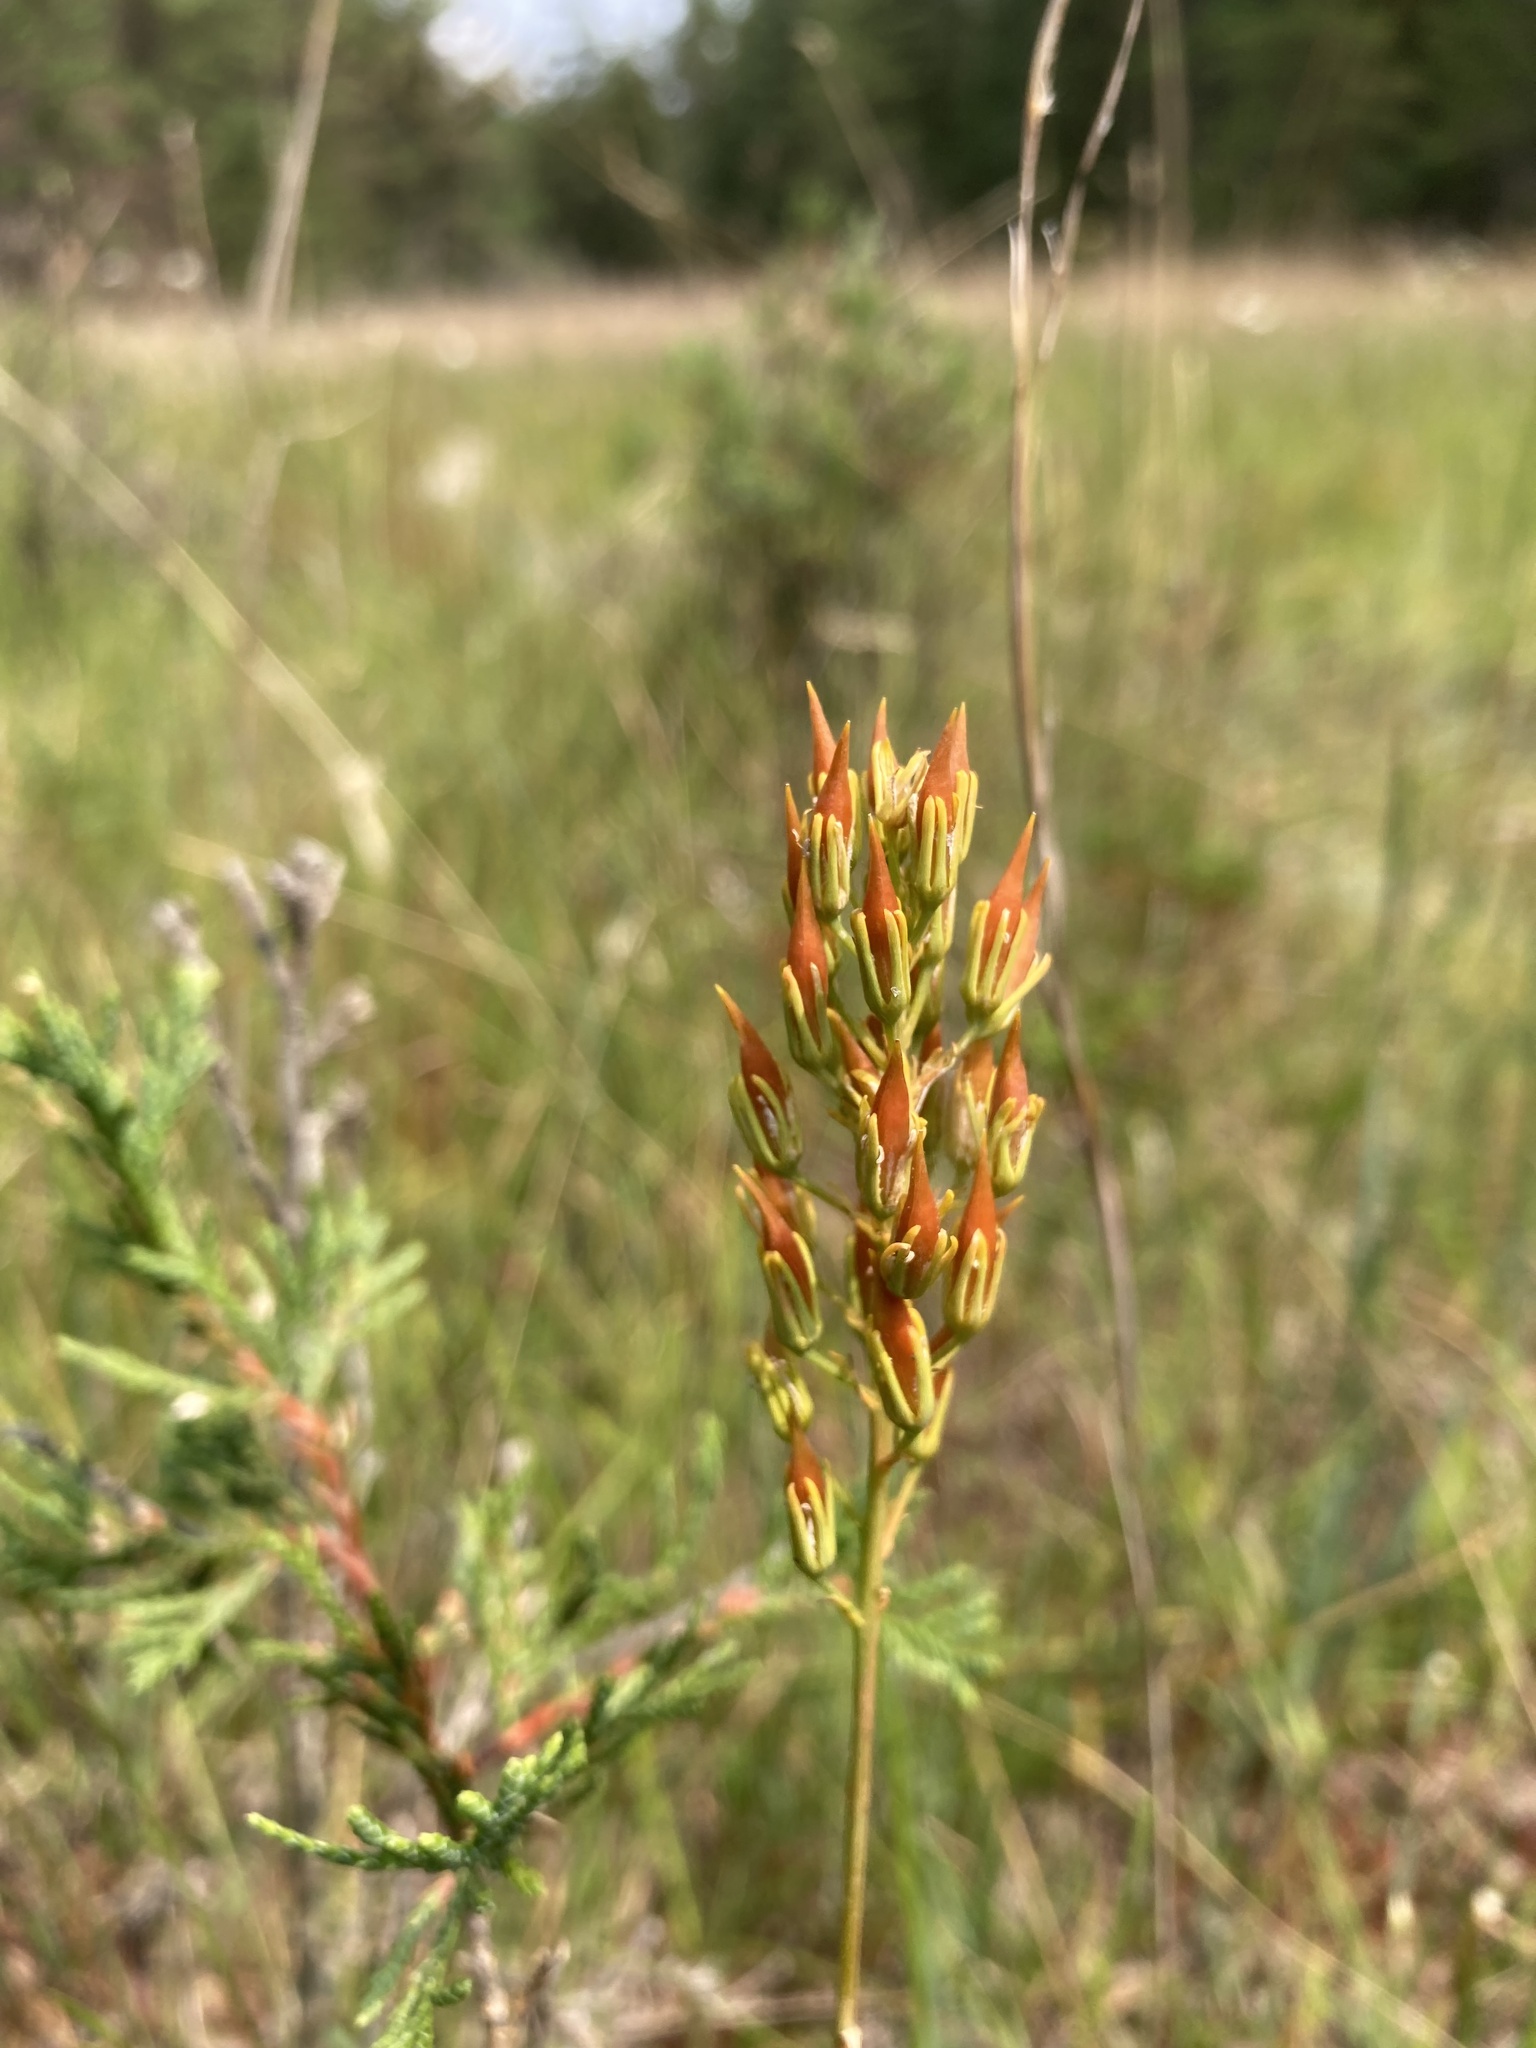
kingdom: Plantae
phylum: Tracheophyta
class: Liliopsida
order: Dioscoreales
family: Nartheciaceae
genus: Narthecium
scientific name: Narthecium americanum
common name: Bog-asphodel
